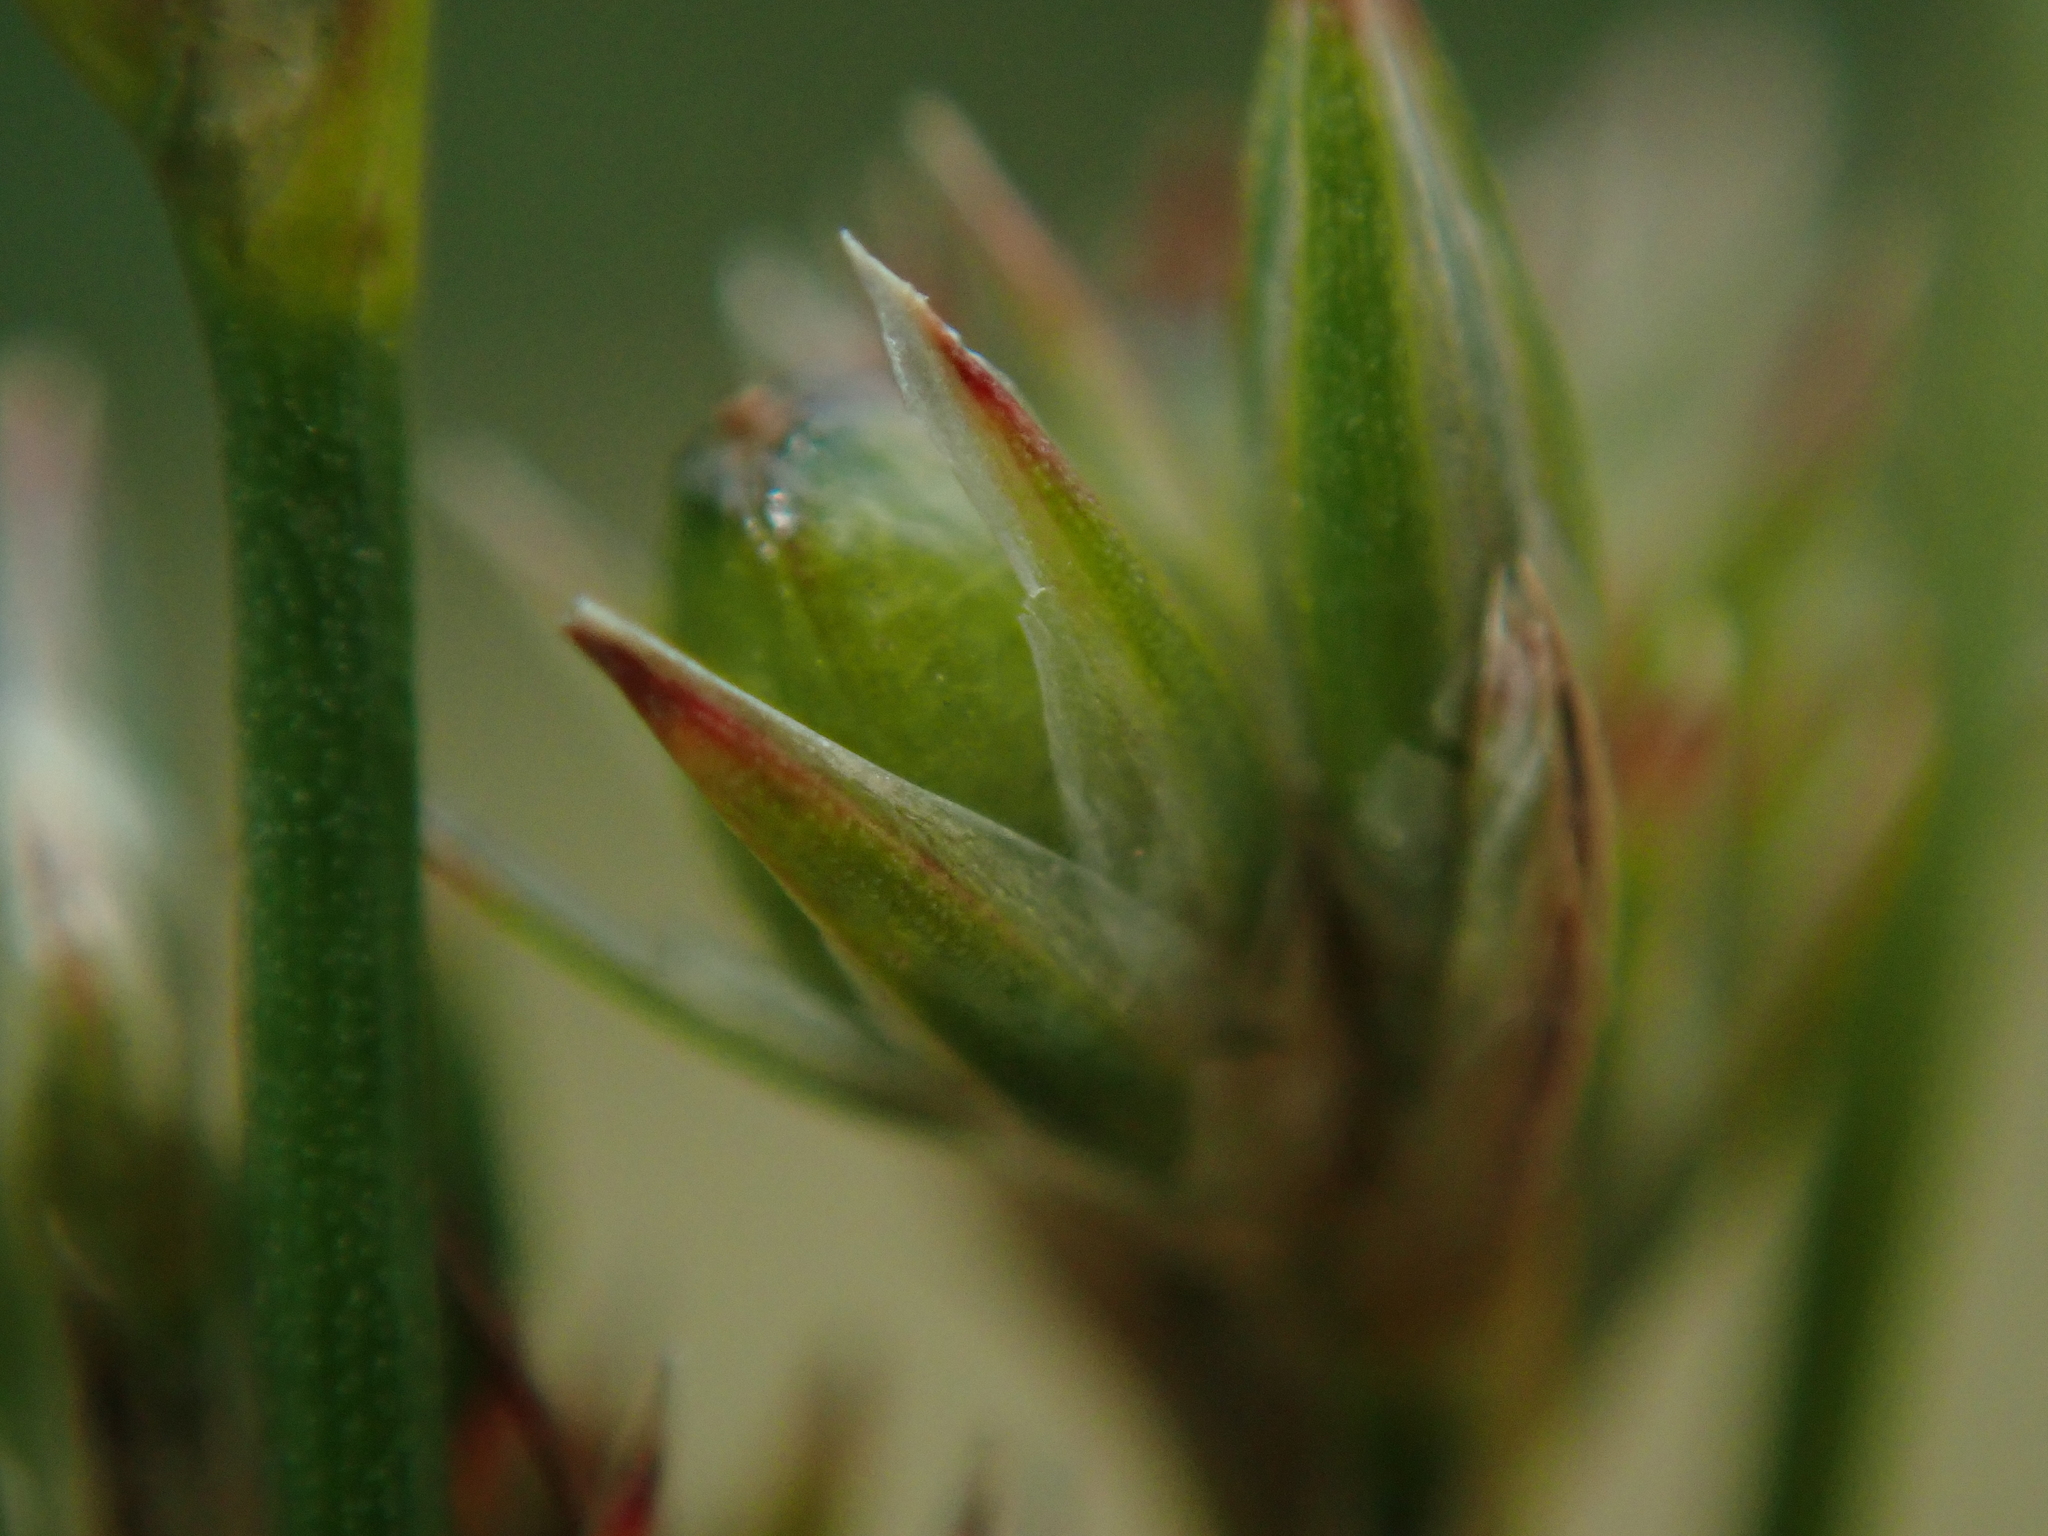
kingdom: Plantae
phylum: Tracheophyta
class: Liliopsida
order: Poales
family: Juncaceae
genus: Juncus
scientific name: Juncus tenuis
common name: Slender rush
